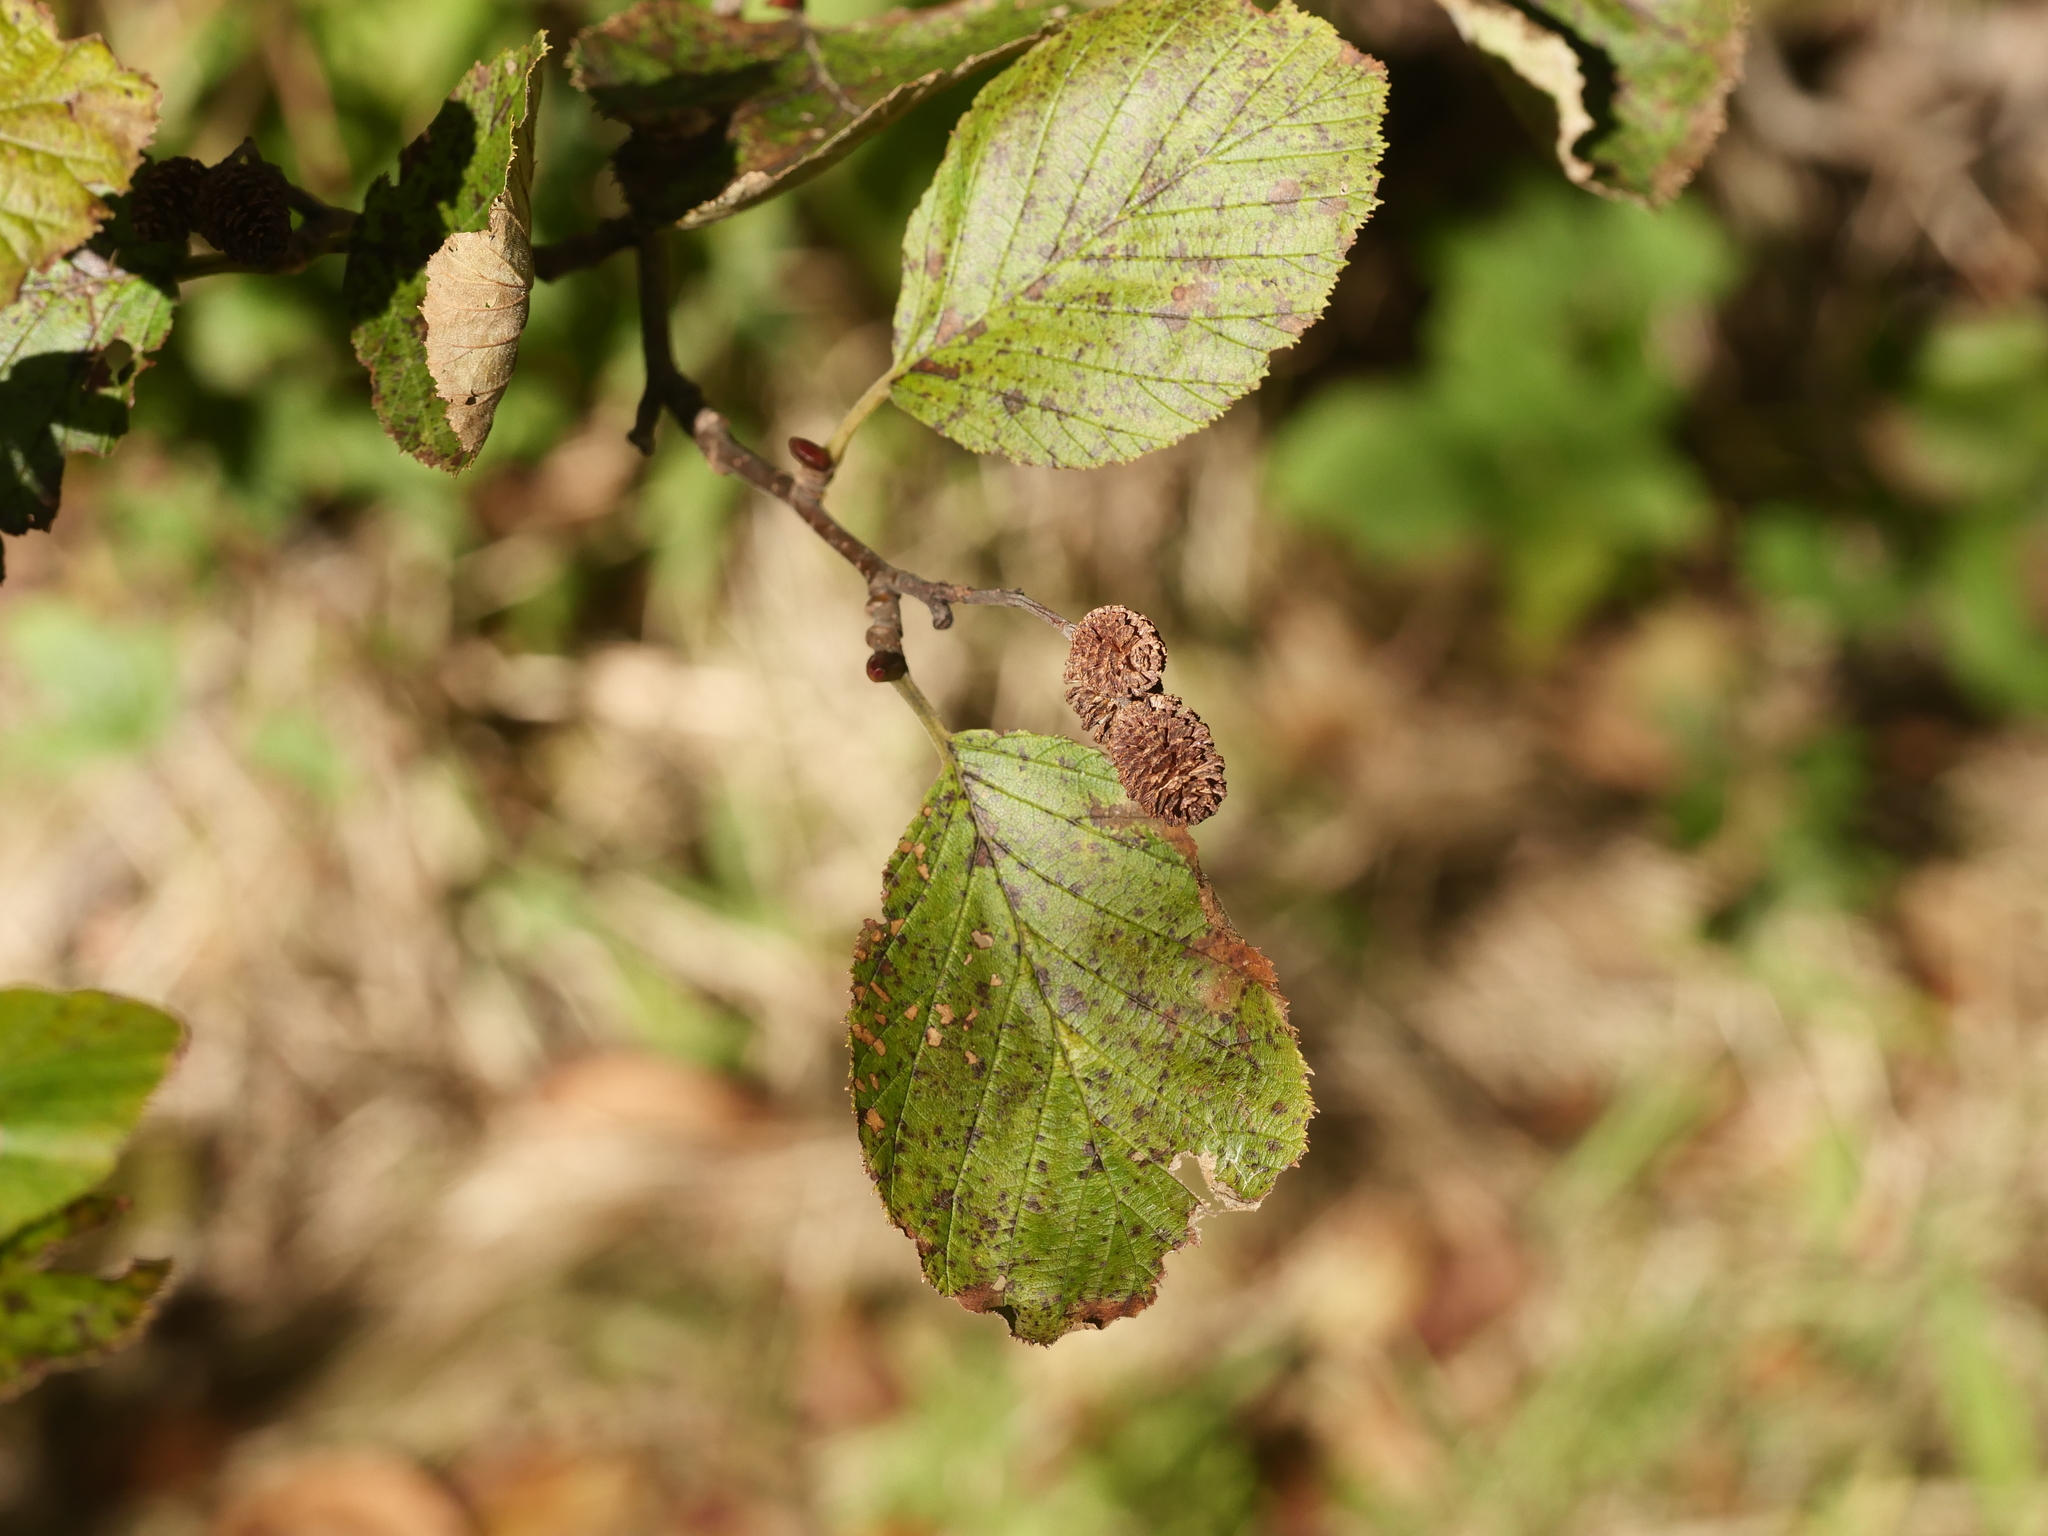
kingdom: Plantae
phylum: Tracheophyta
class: Magnoliopsida
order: Fagales
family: Betulaceae
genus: Alnus
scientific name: Alnus incana
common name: Grey alder
